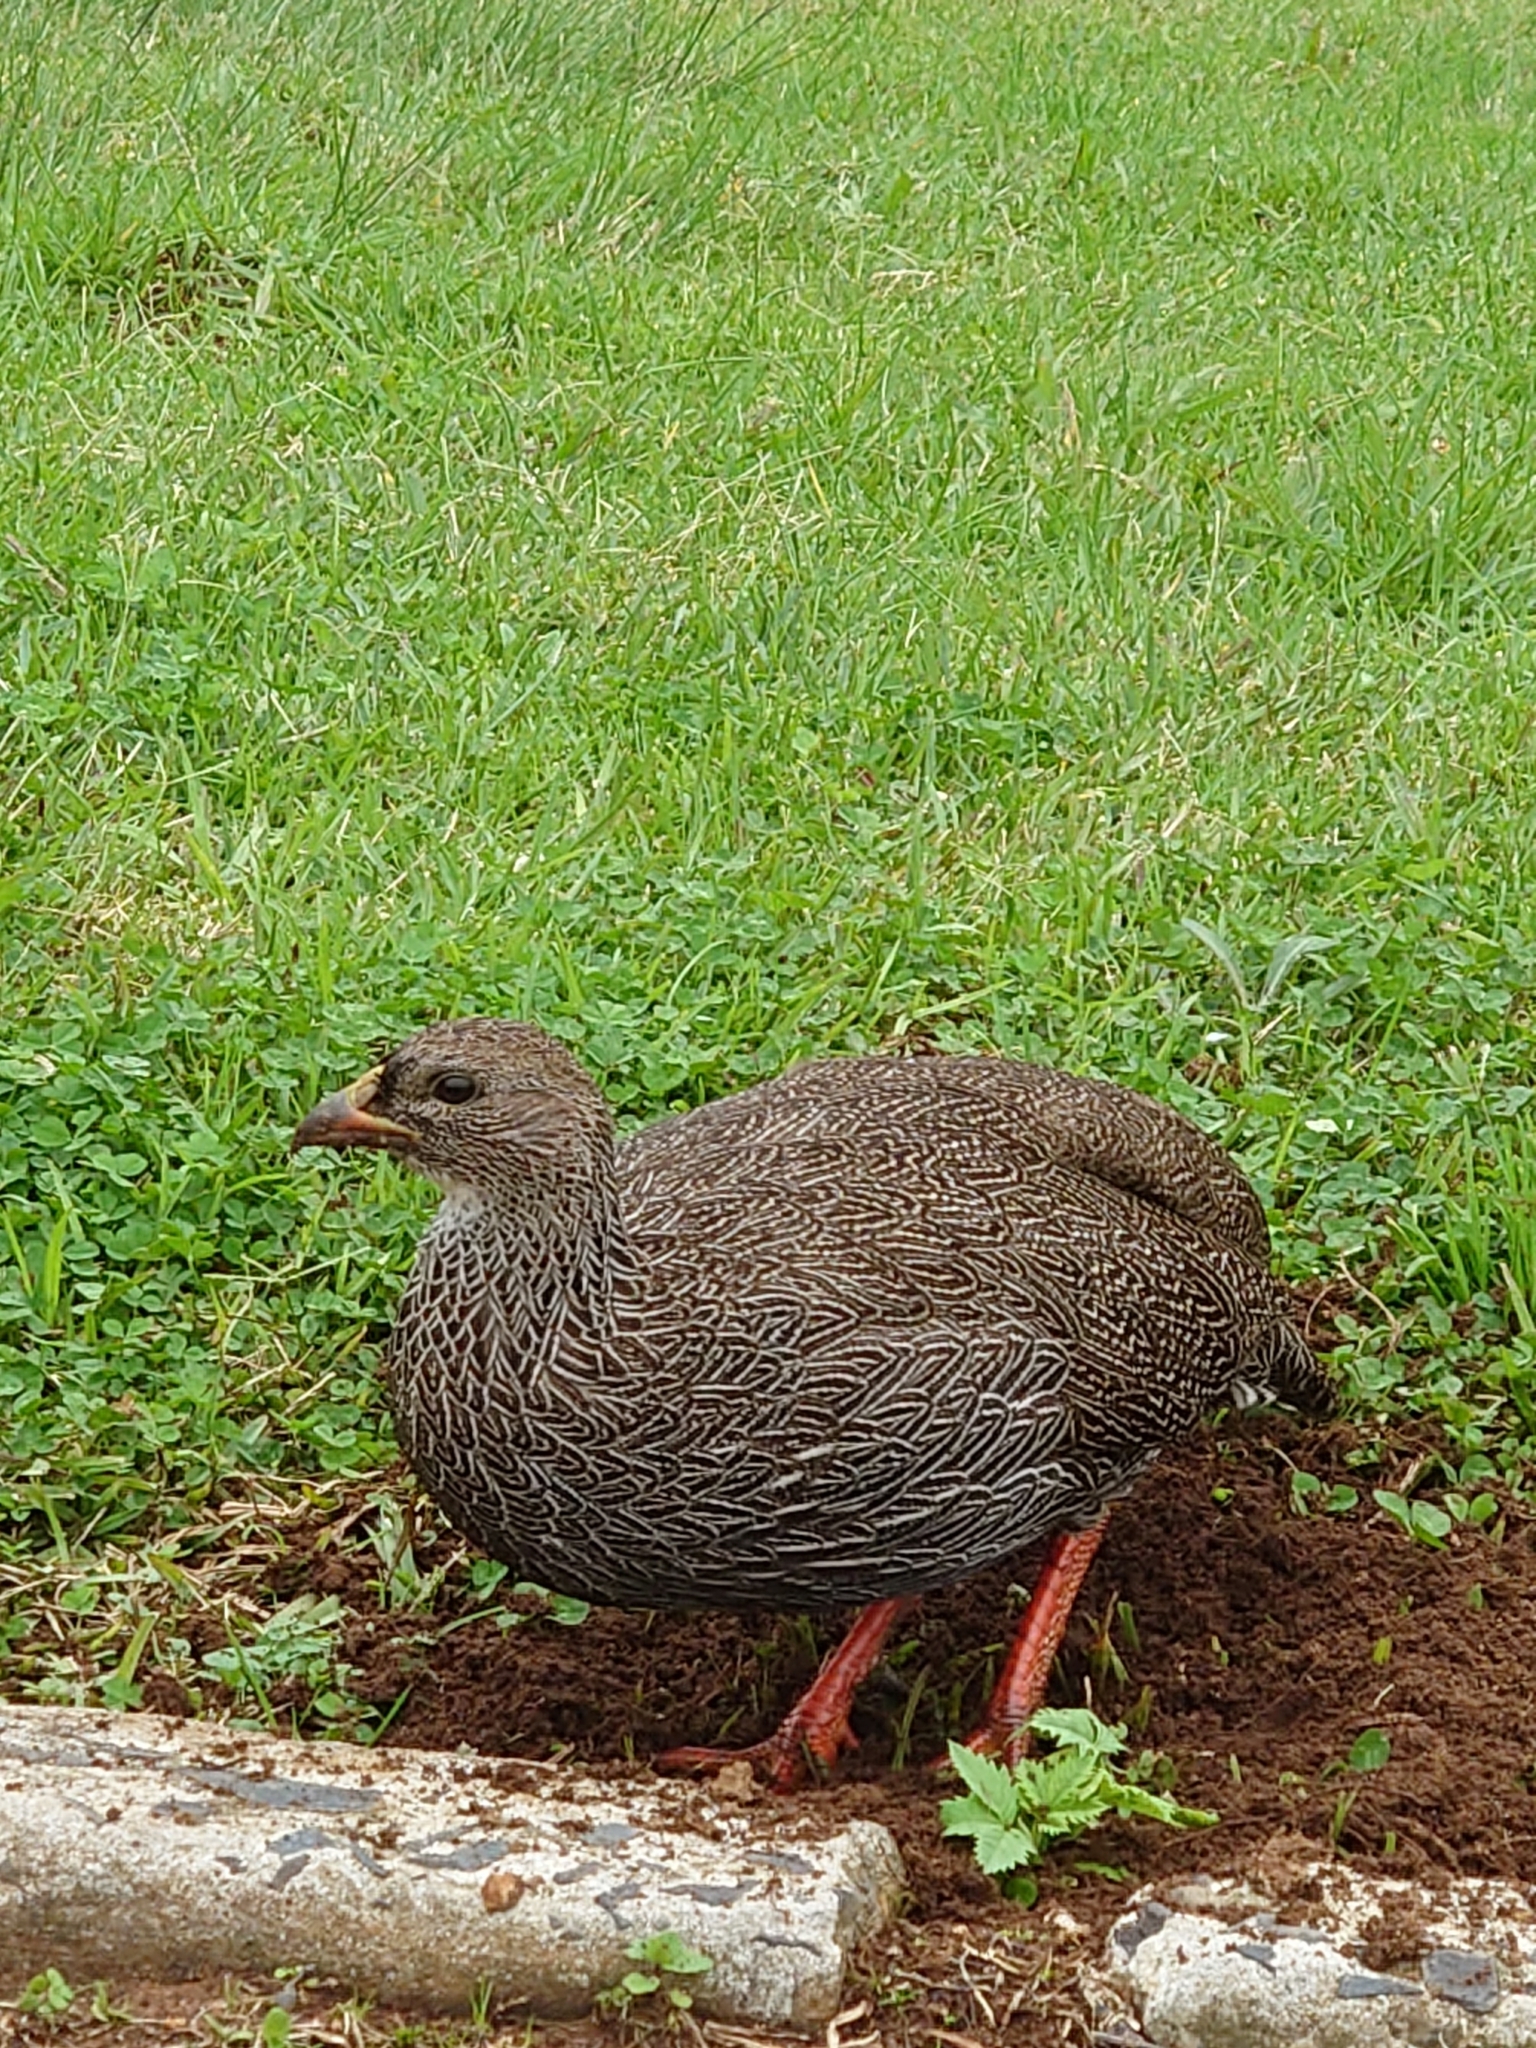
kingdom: Animalia
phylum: Chordata
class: Aves
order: Galliformes
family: Phasianidae
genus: Pternistis
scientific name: Pternistis capensis
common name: Cape spurfowl
